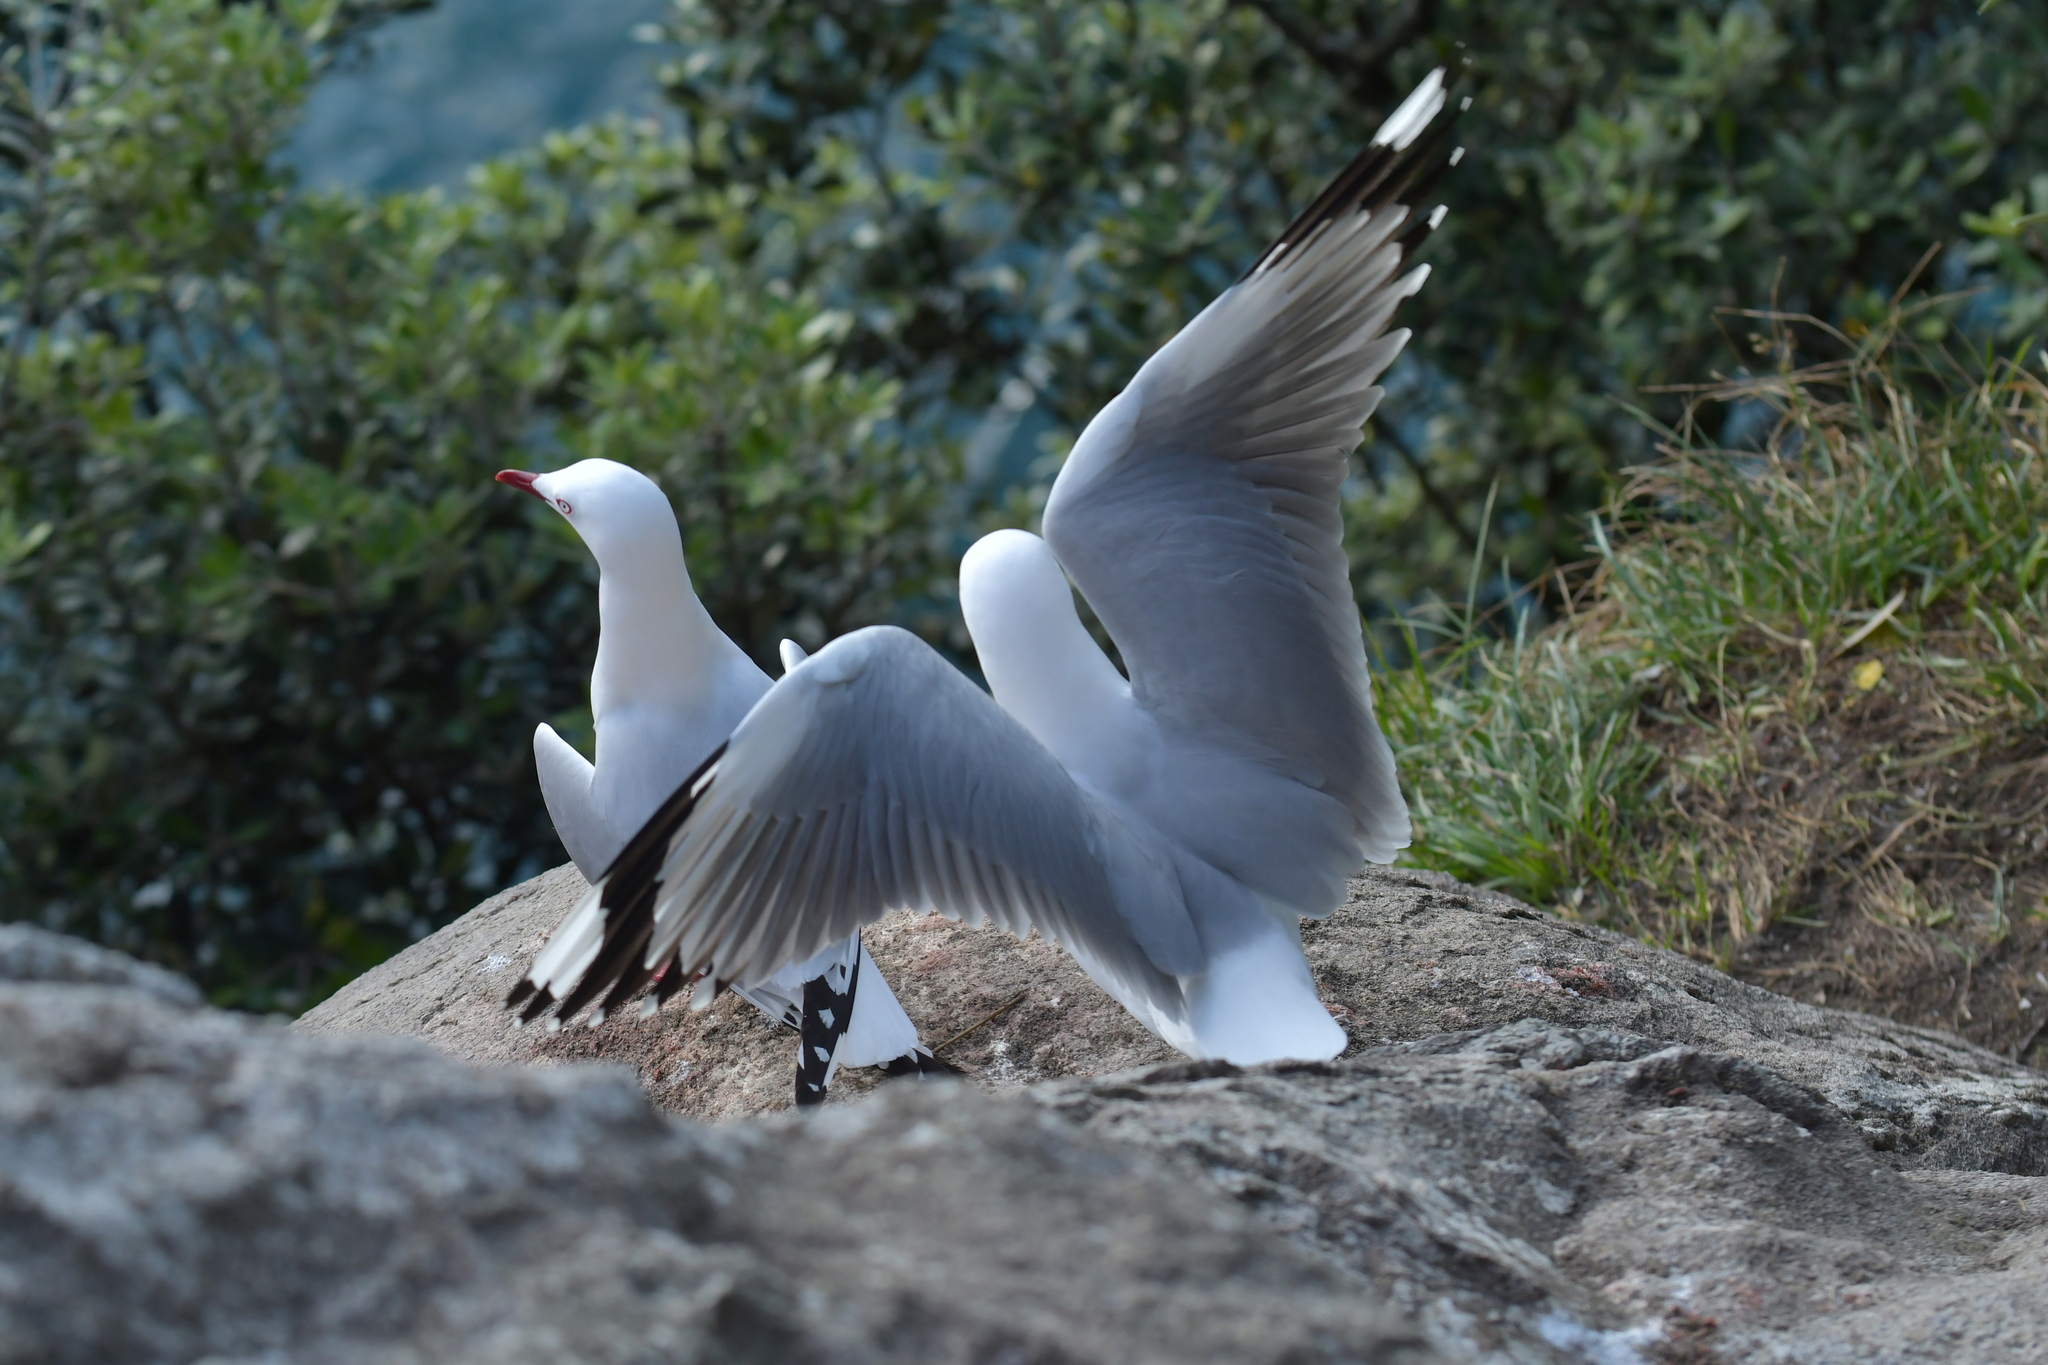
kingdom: Animalia
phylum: Chordata
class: Aves
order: Charadriiformes
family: Laridae
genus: Chroicocephalus
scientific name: Chroicocephalus novaehollandiae
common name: Silver gull
